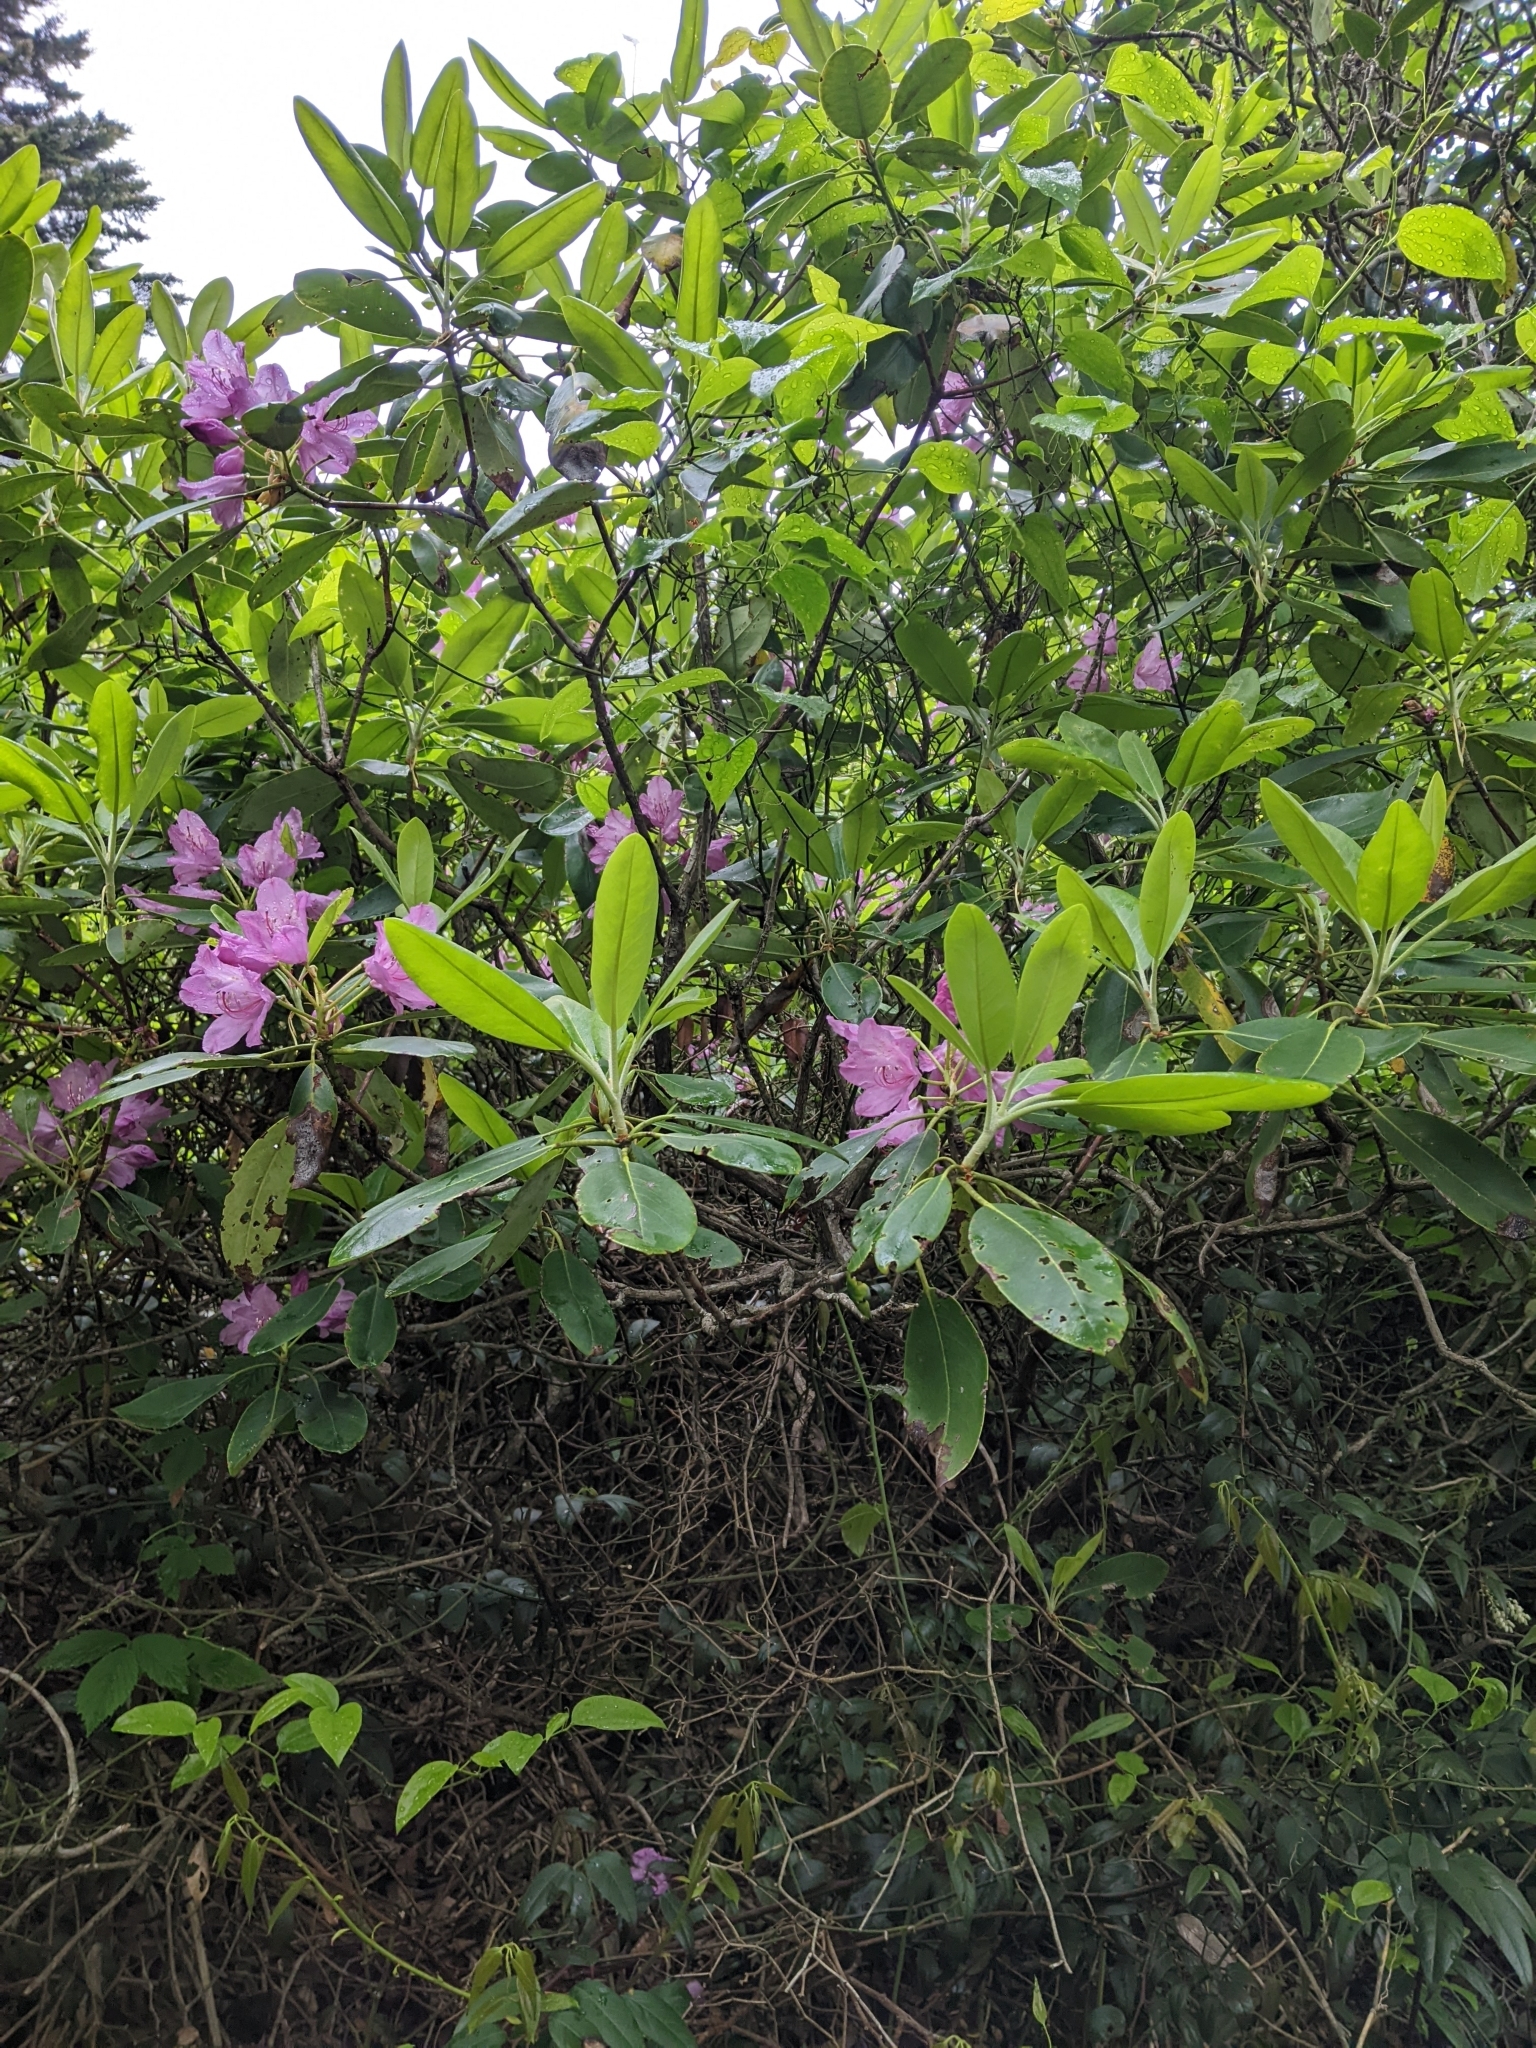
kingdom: Plantae
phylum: Tracheophyta
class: Magnoliopsida
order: Ericales
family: Ericaceae
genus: Rhododendron
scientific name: Rhododendron catawbiense
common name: Catawba rhododendron
